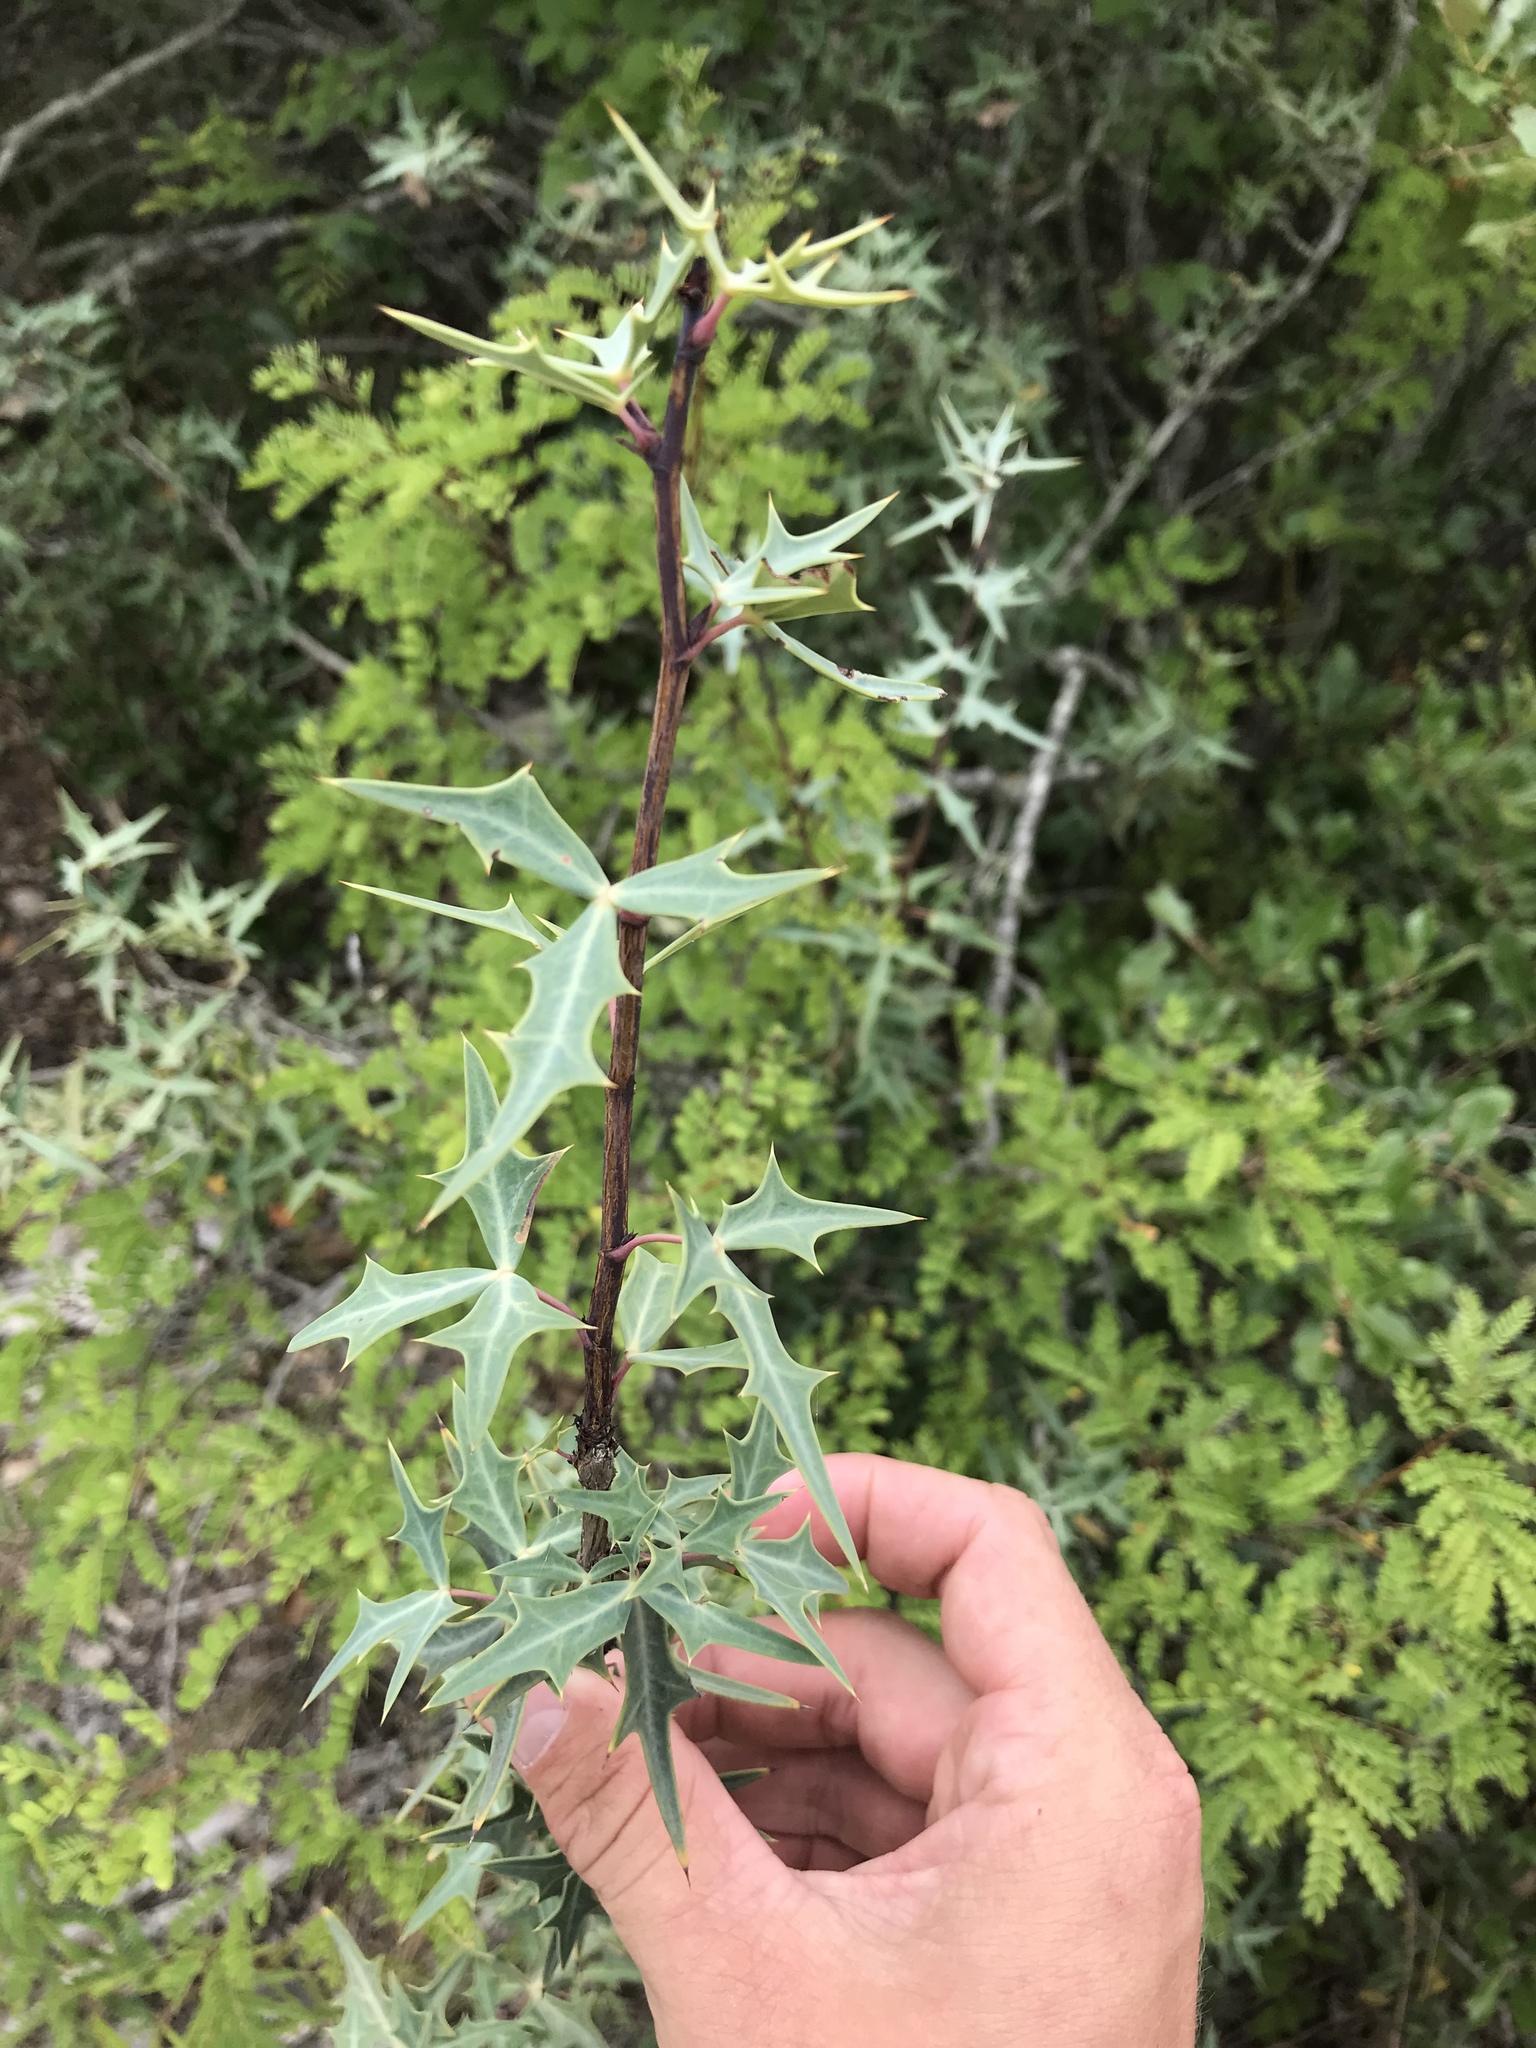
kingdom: Plantae
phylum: Tracheophyta
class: Magnoliopsida
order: Ranunculales
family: Berberidaceae
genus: Alloberberis
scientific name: Alloberberis trifoliolata
